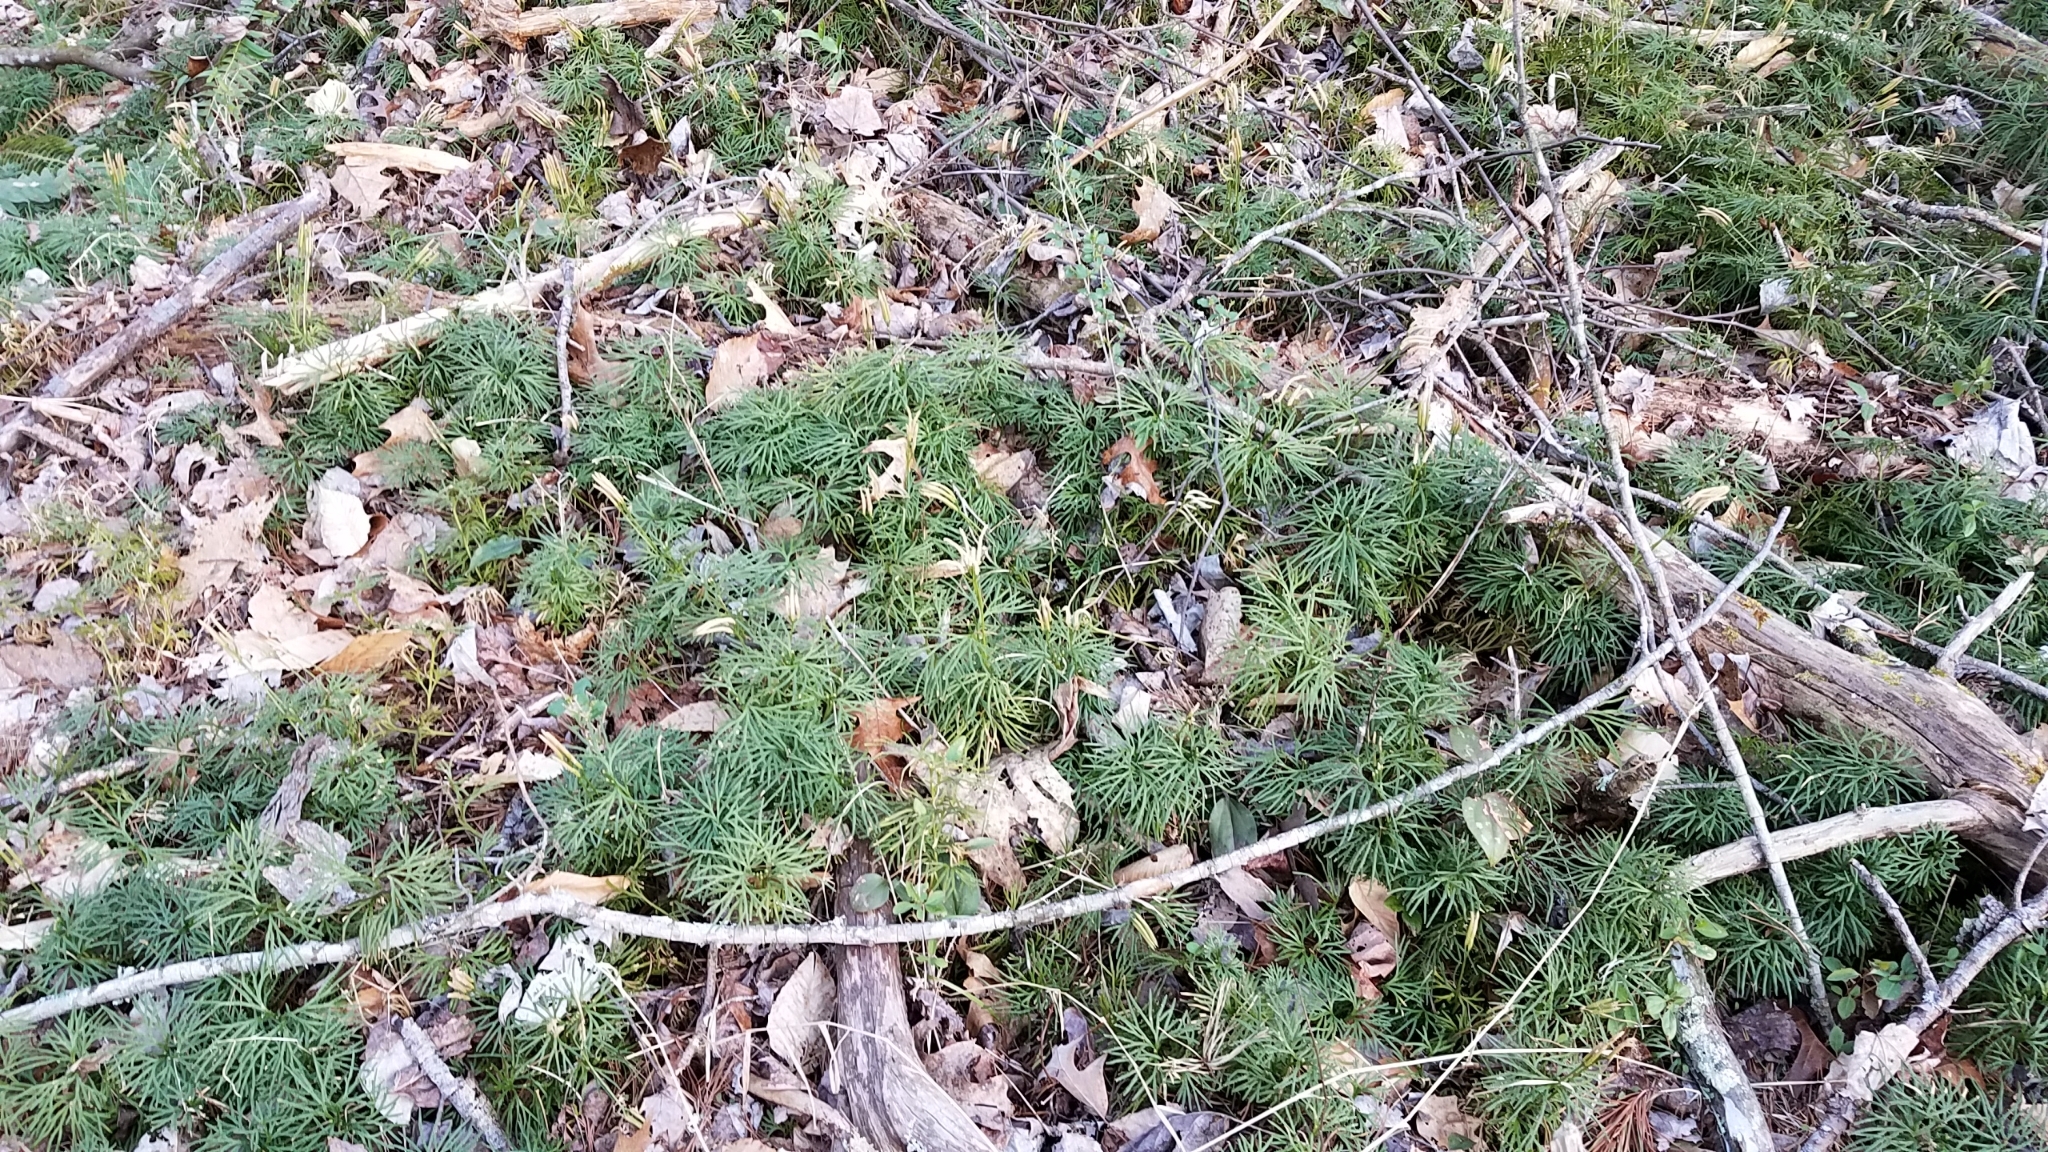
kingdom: Plantae
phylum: Tracheophyta
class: Lycopodiopsida
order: Lycopodiales
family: Lycopodiaceae
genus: Diphasiastrum
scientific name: Diphasiastrum digitatum
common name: Southern running-pine
